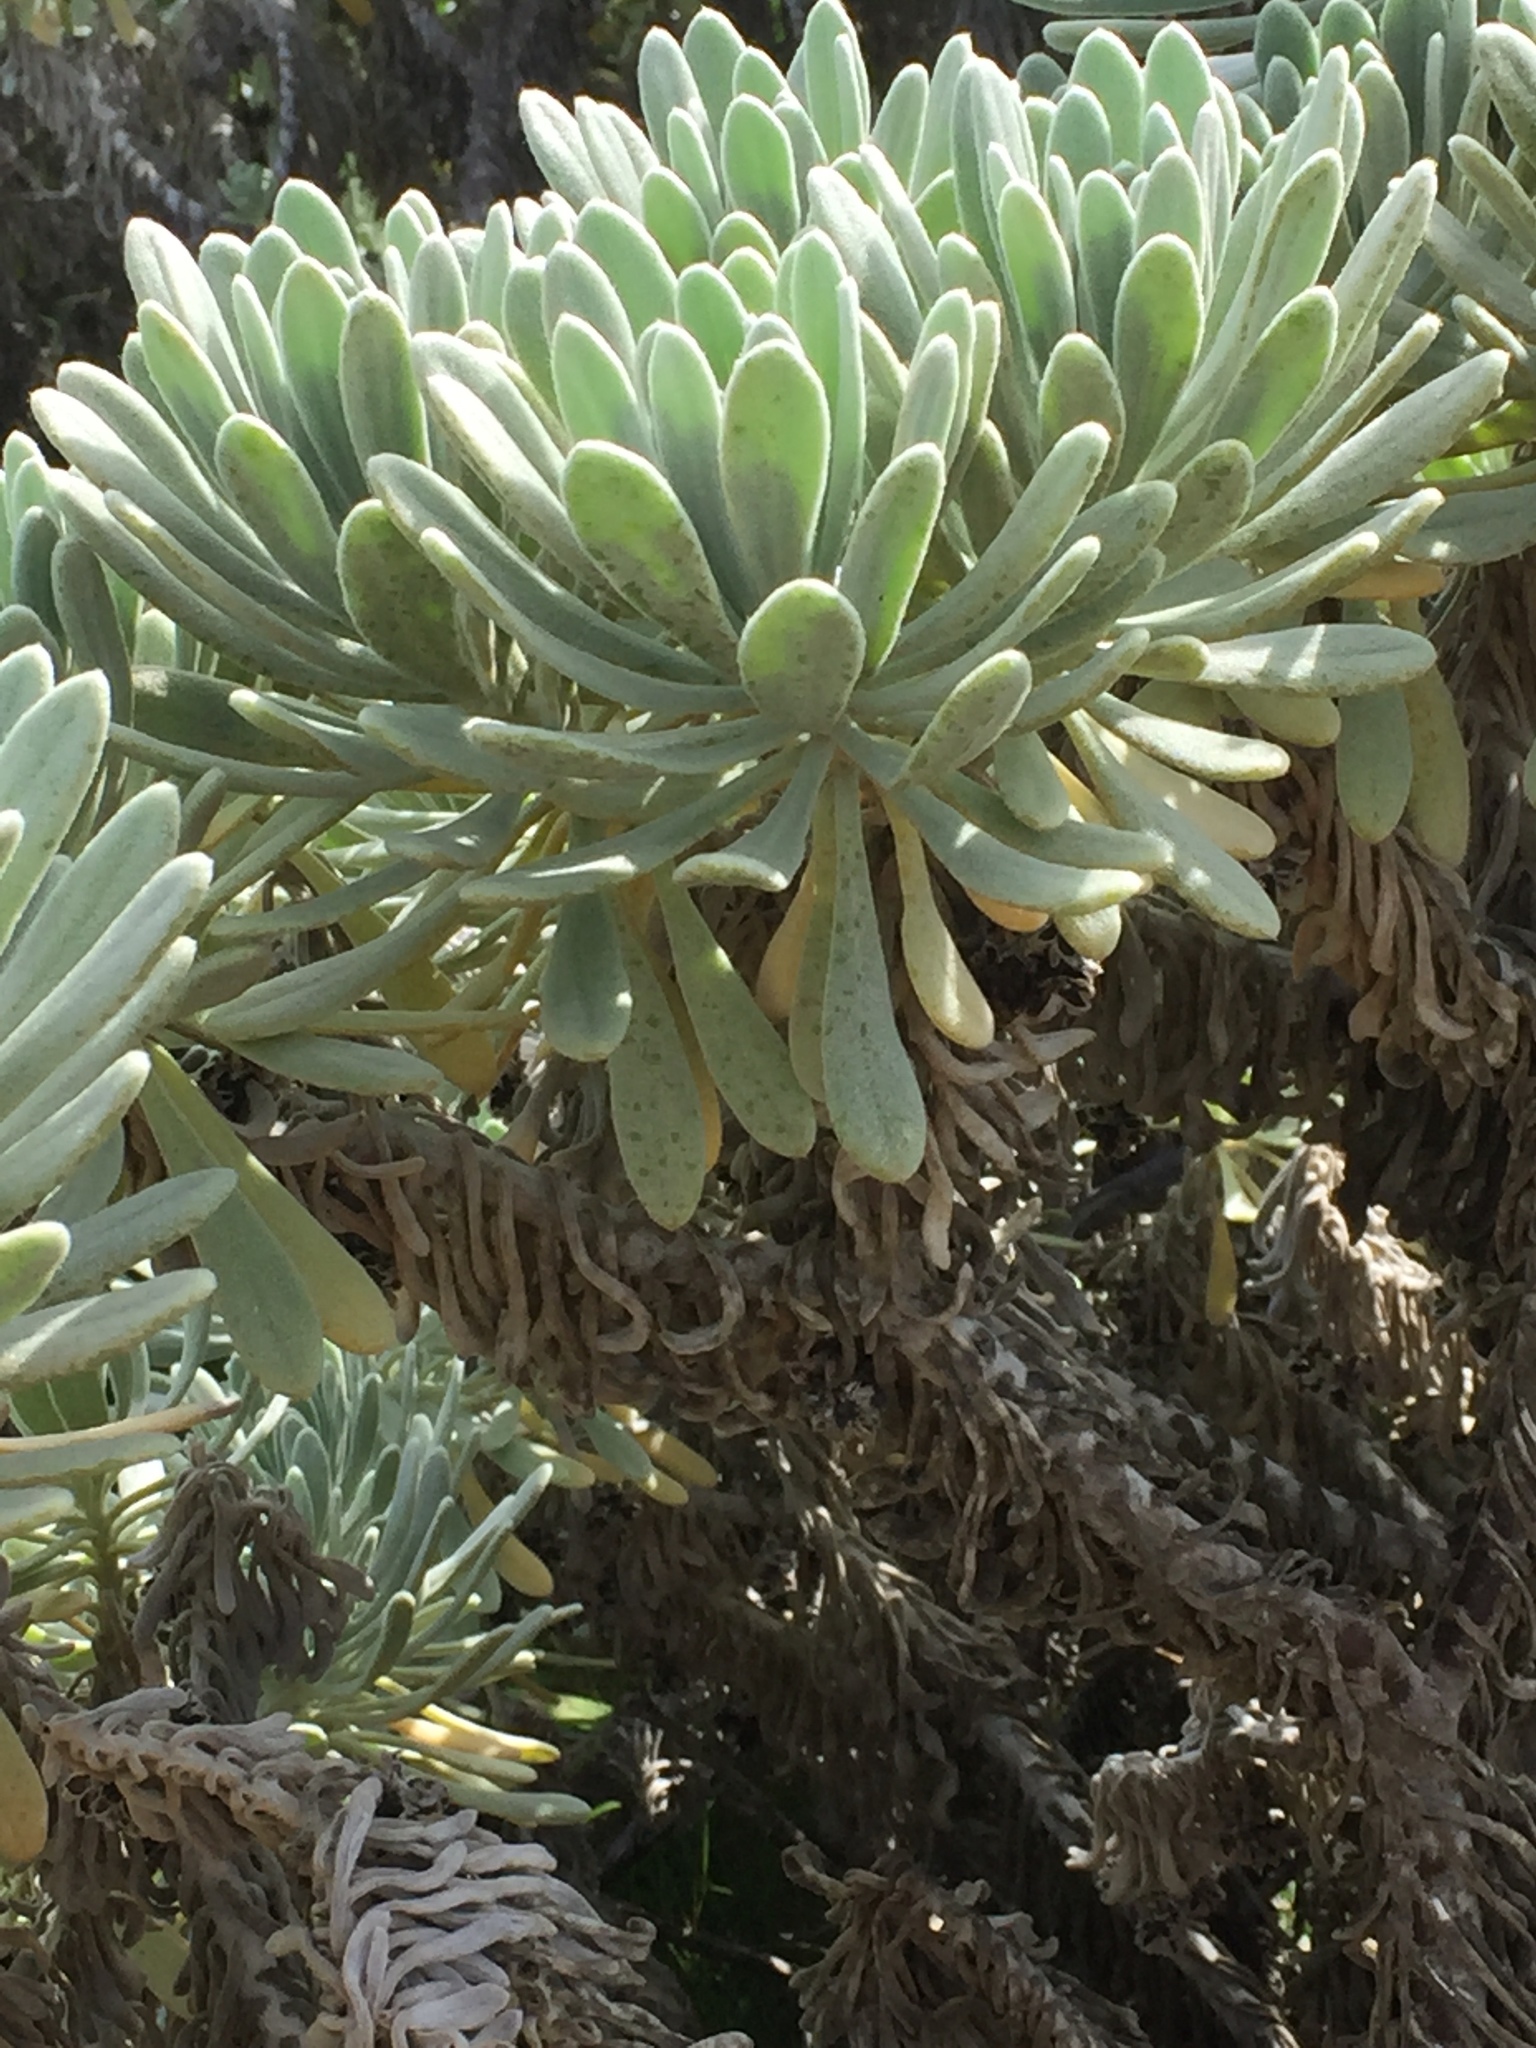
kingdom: Plantae
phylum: Tracheophyta
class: Magnoliopsida
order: Boraginales
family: Heliotropiaceae
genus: Tournefortia
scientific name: Tournefortia gnaphalodes
